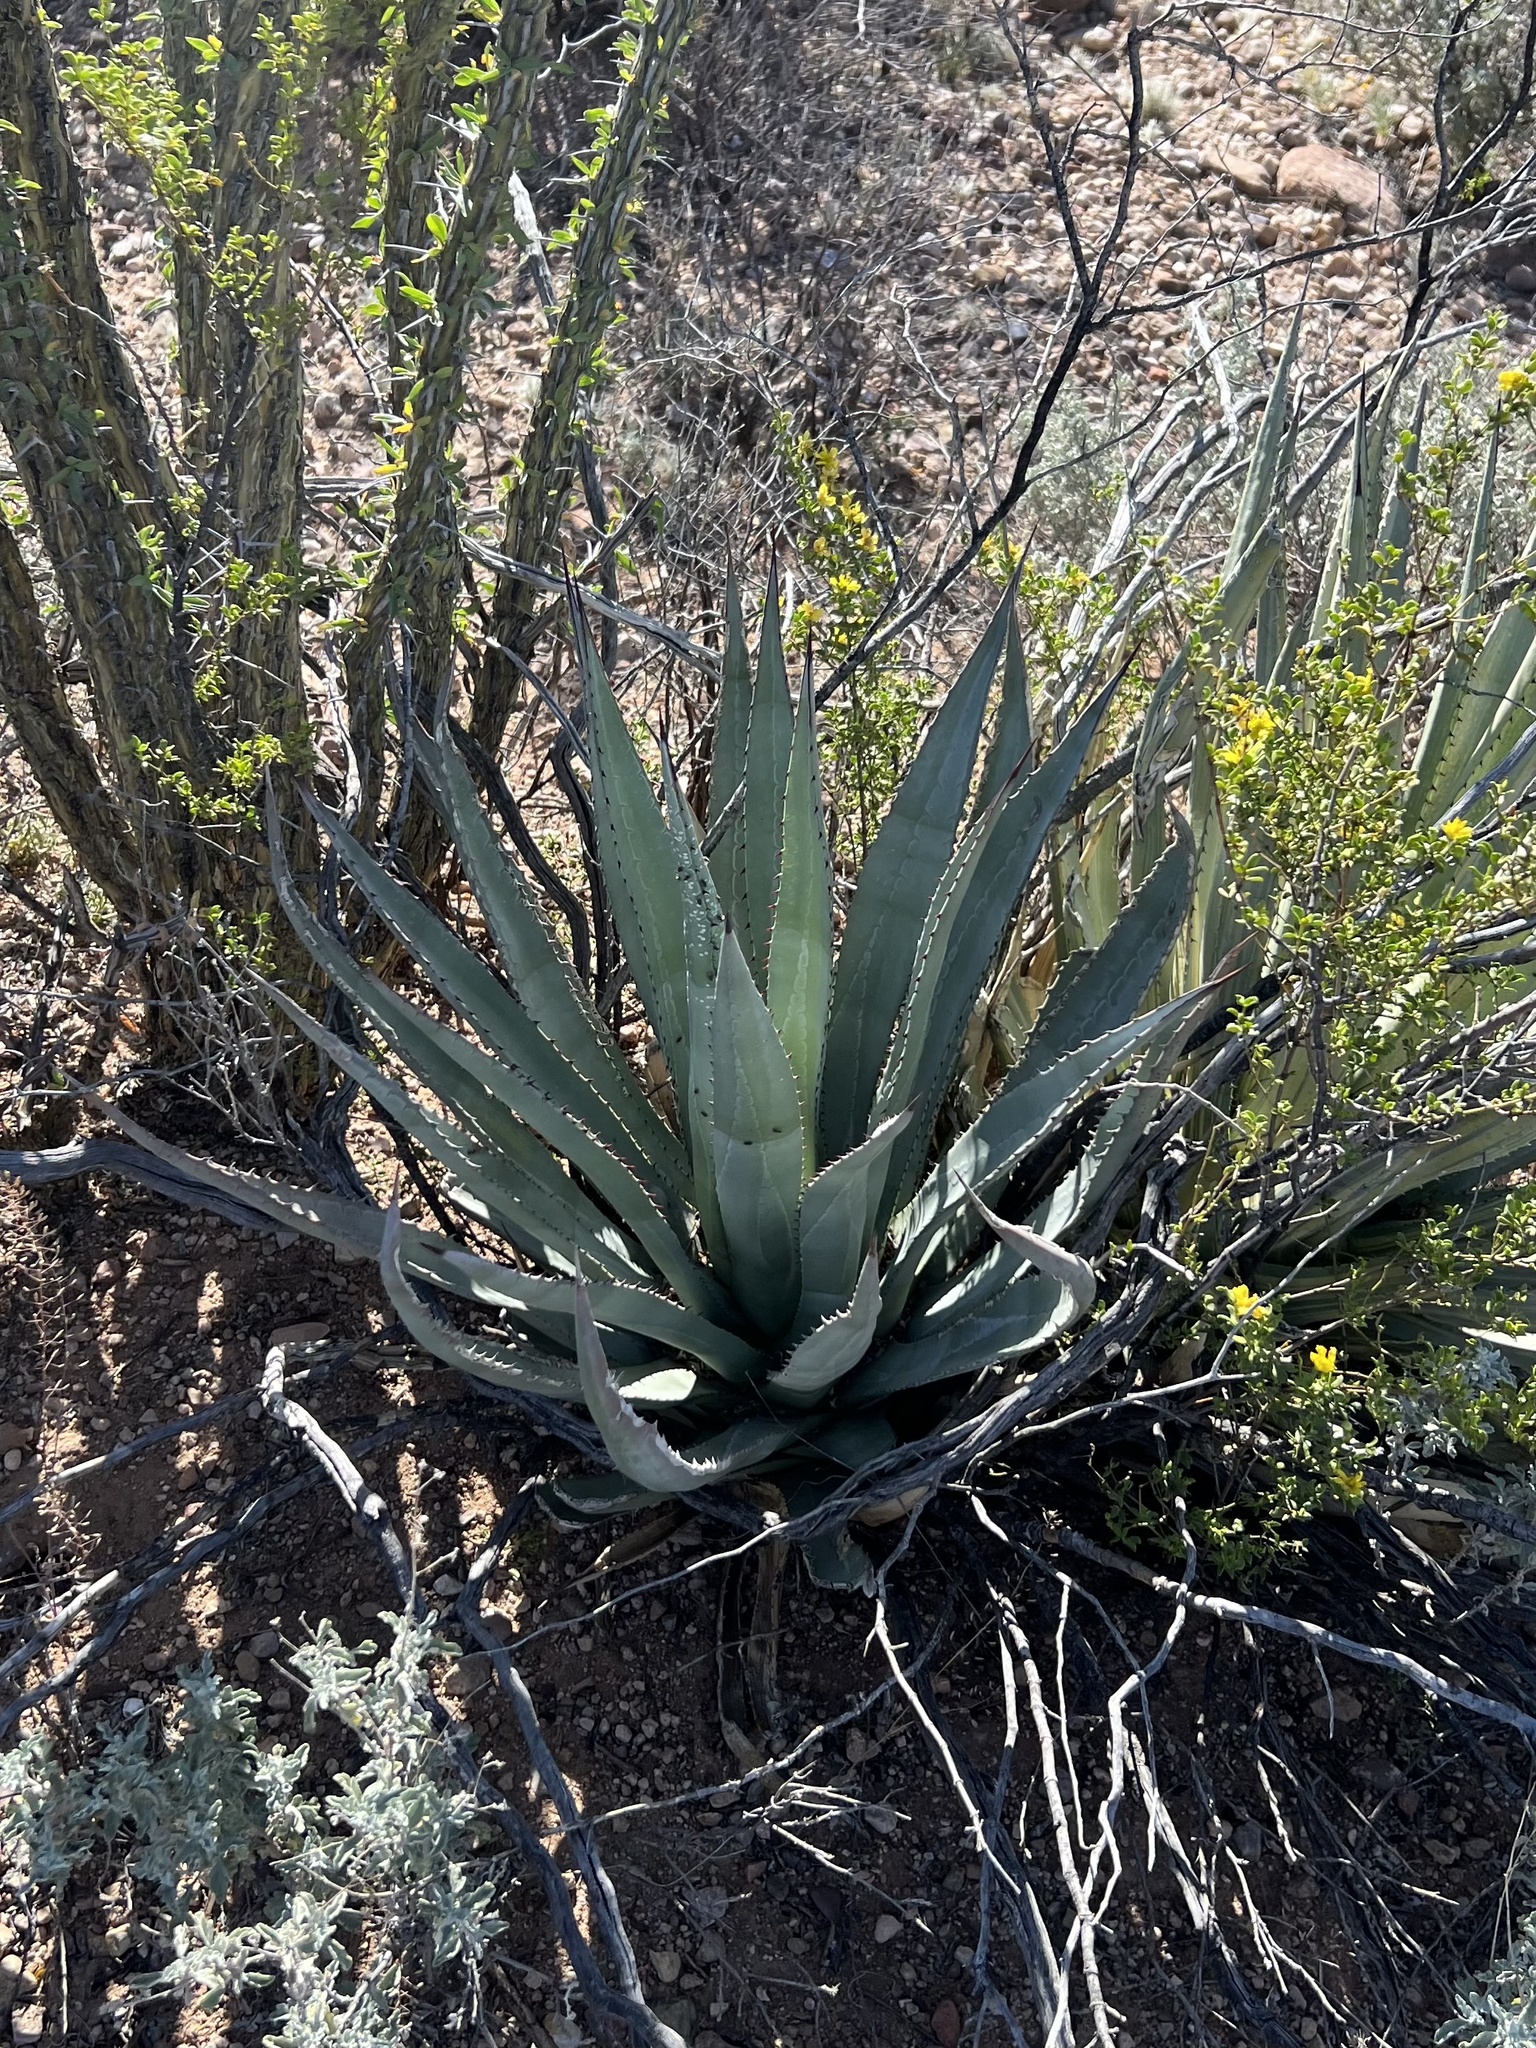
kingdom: Plantae
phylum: Tracheophyta
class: Liliopsida
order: Asparagales
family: Asparagaceae
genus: Agave
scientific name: Agave palmeri
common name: Palmer agave
